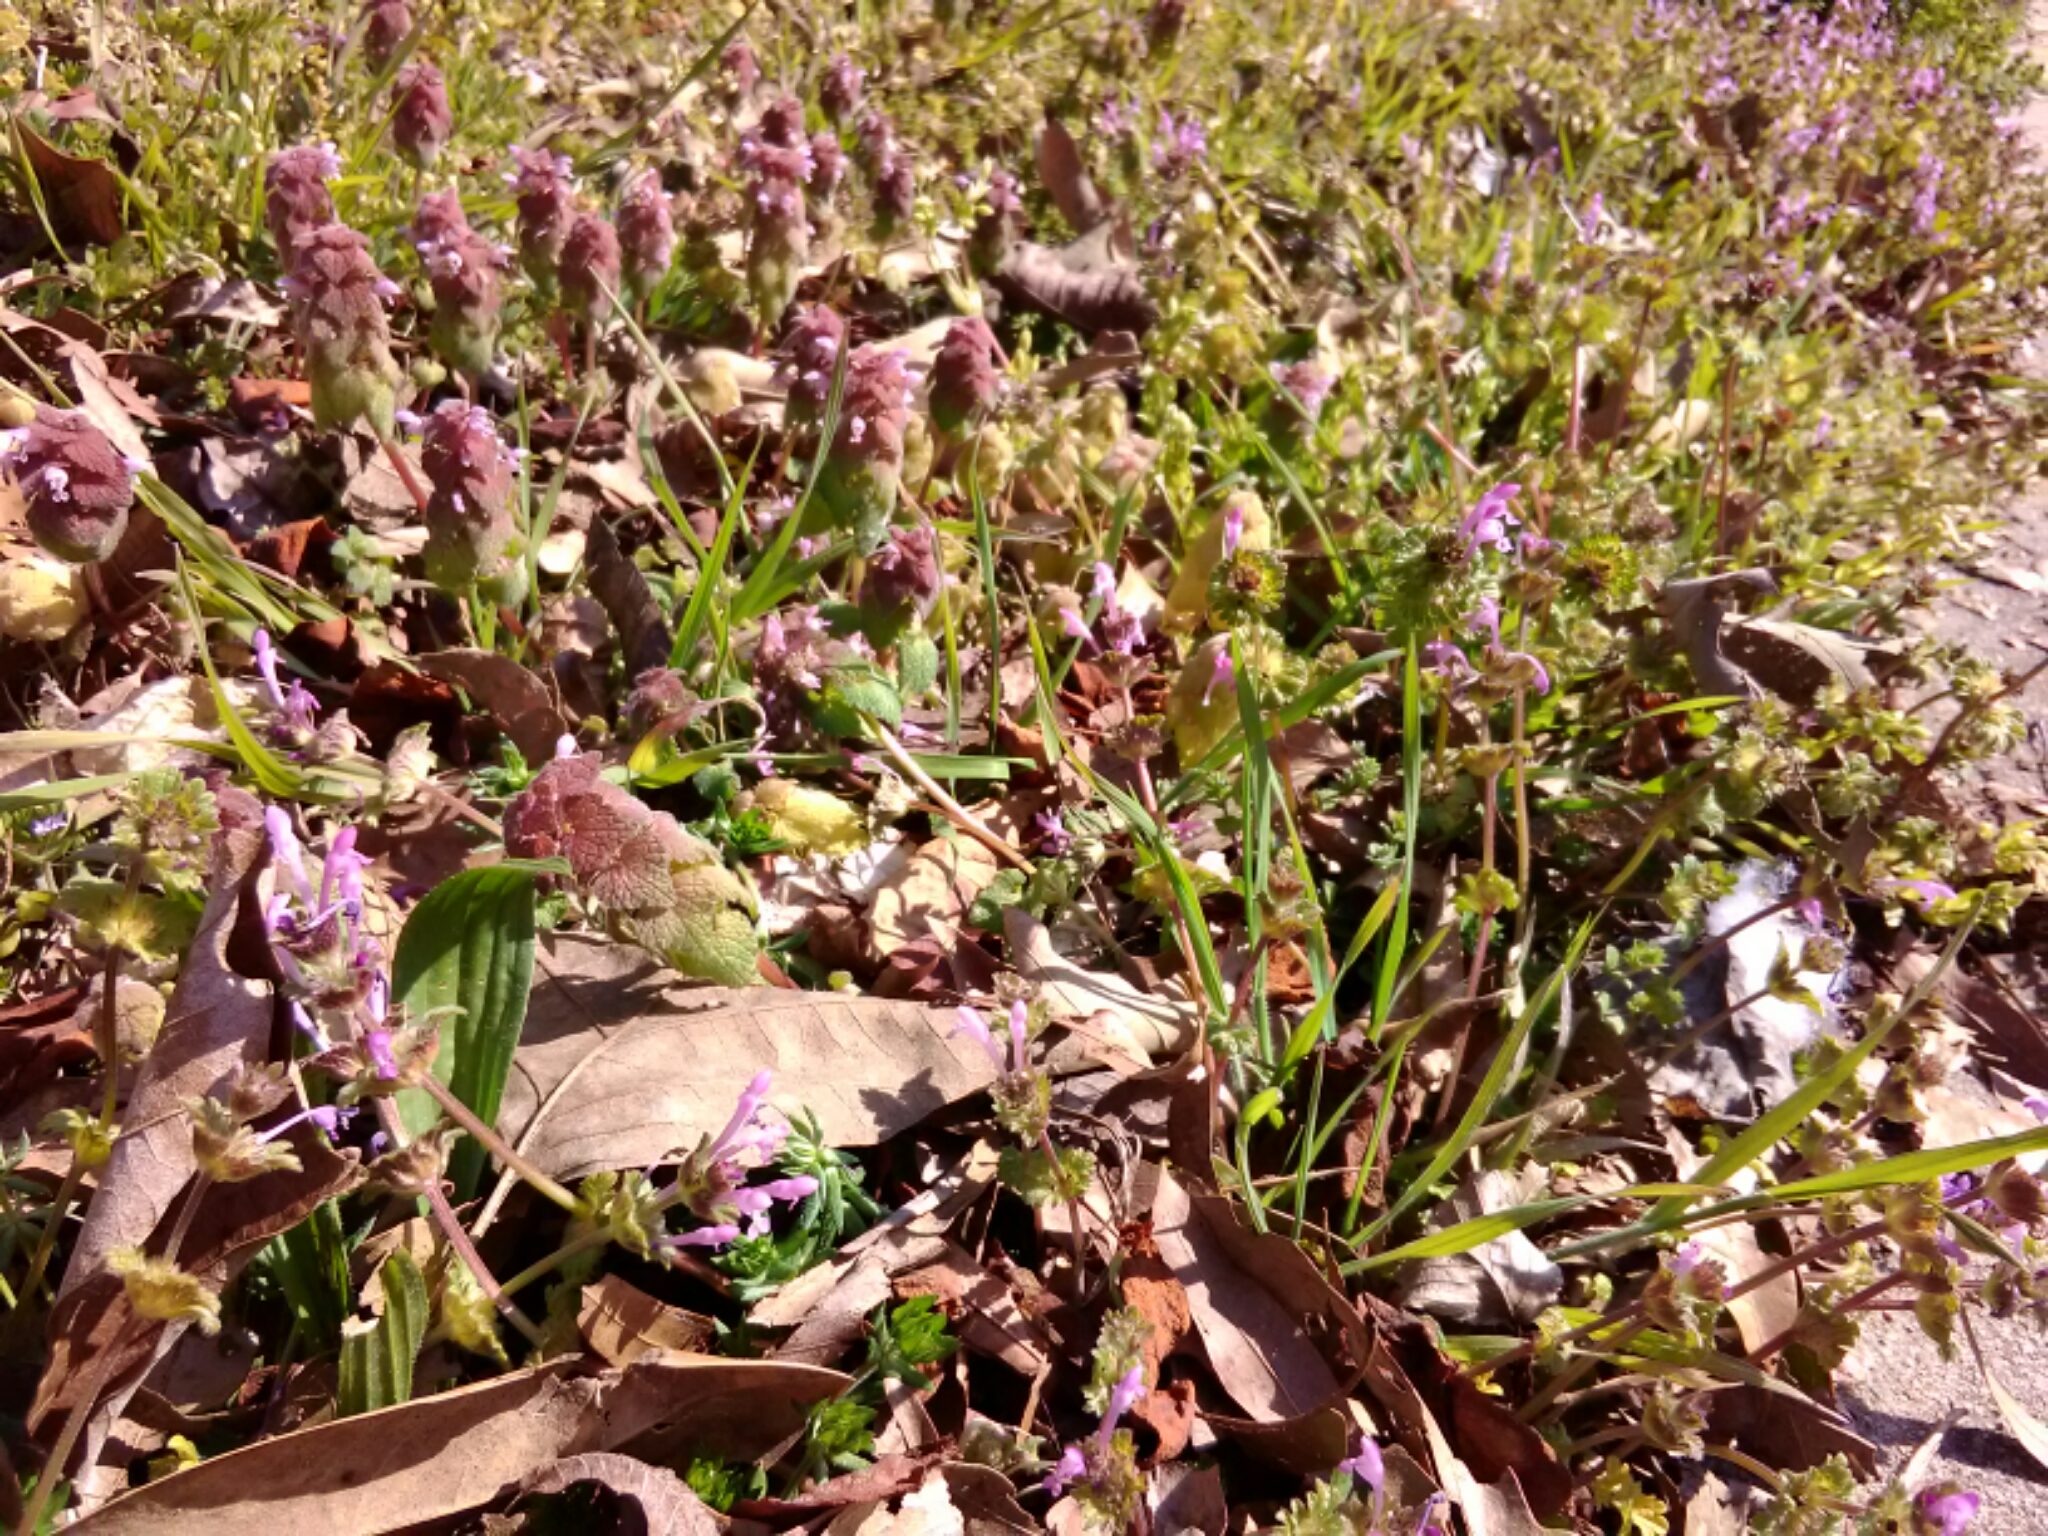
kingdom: Plantae
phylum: Tracheophyta
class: Magnoliopsida
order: Lamiales
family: Lamiaceae
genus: Lamium
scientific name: Lamium purpureum
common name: Red dead-nettle
